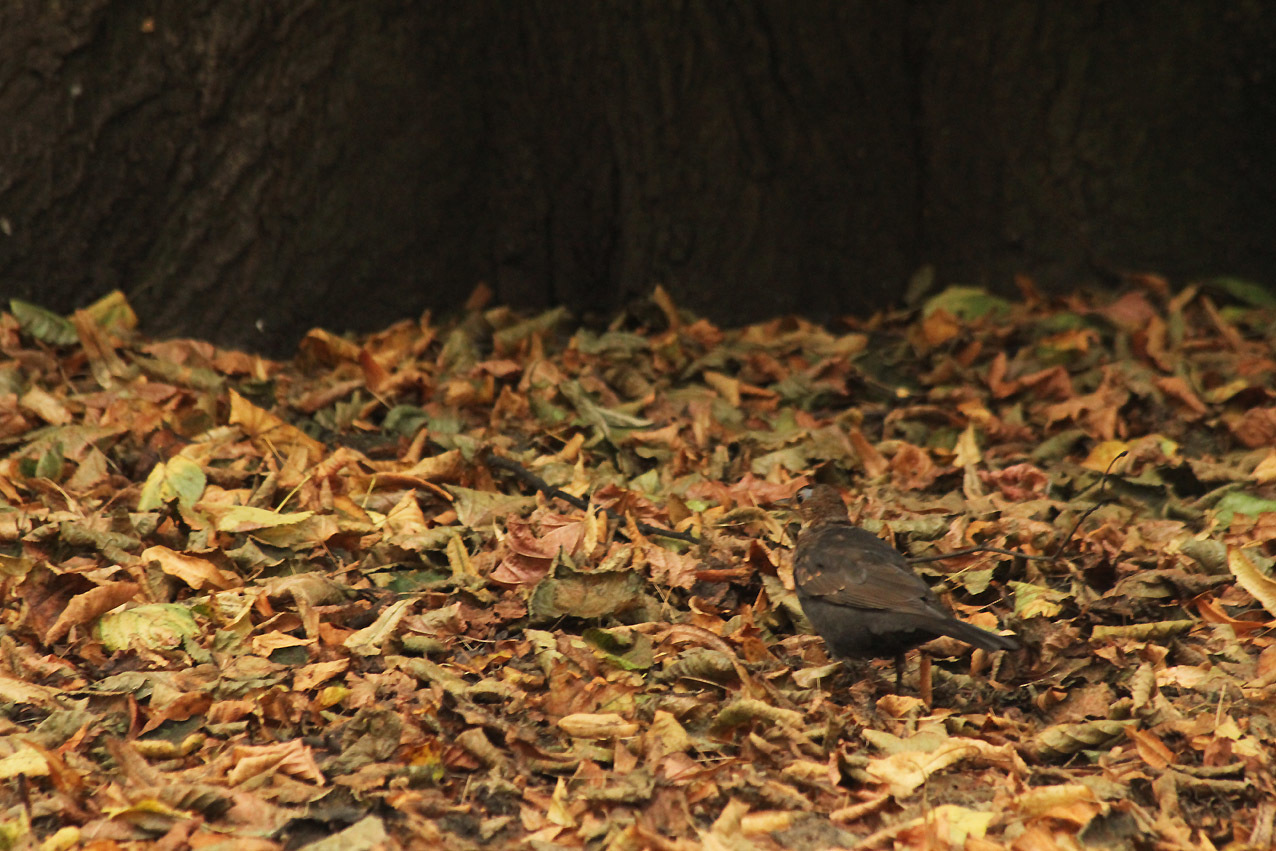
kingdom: Animalia
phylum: Chordata
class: Aves
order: Passeriformes
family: Turdidae
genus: Turdus
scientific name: Turdus merula
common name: Common blackbird
